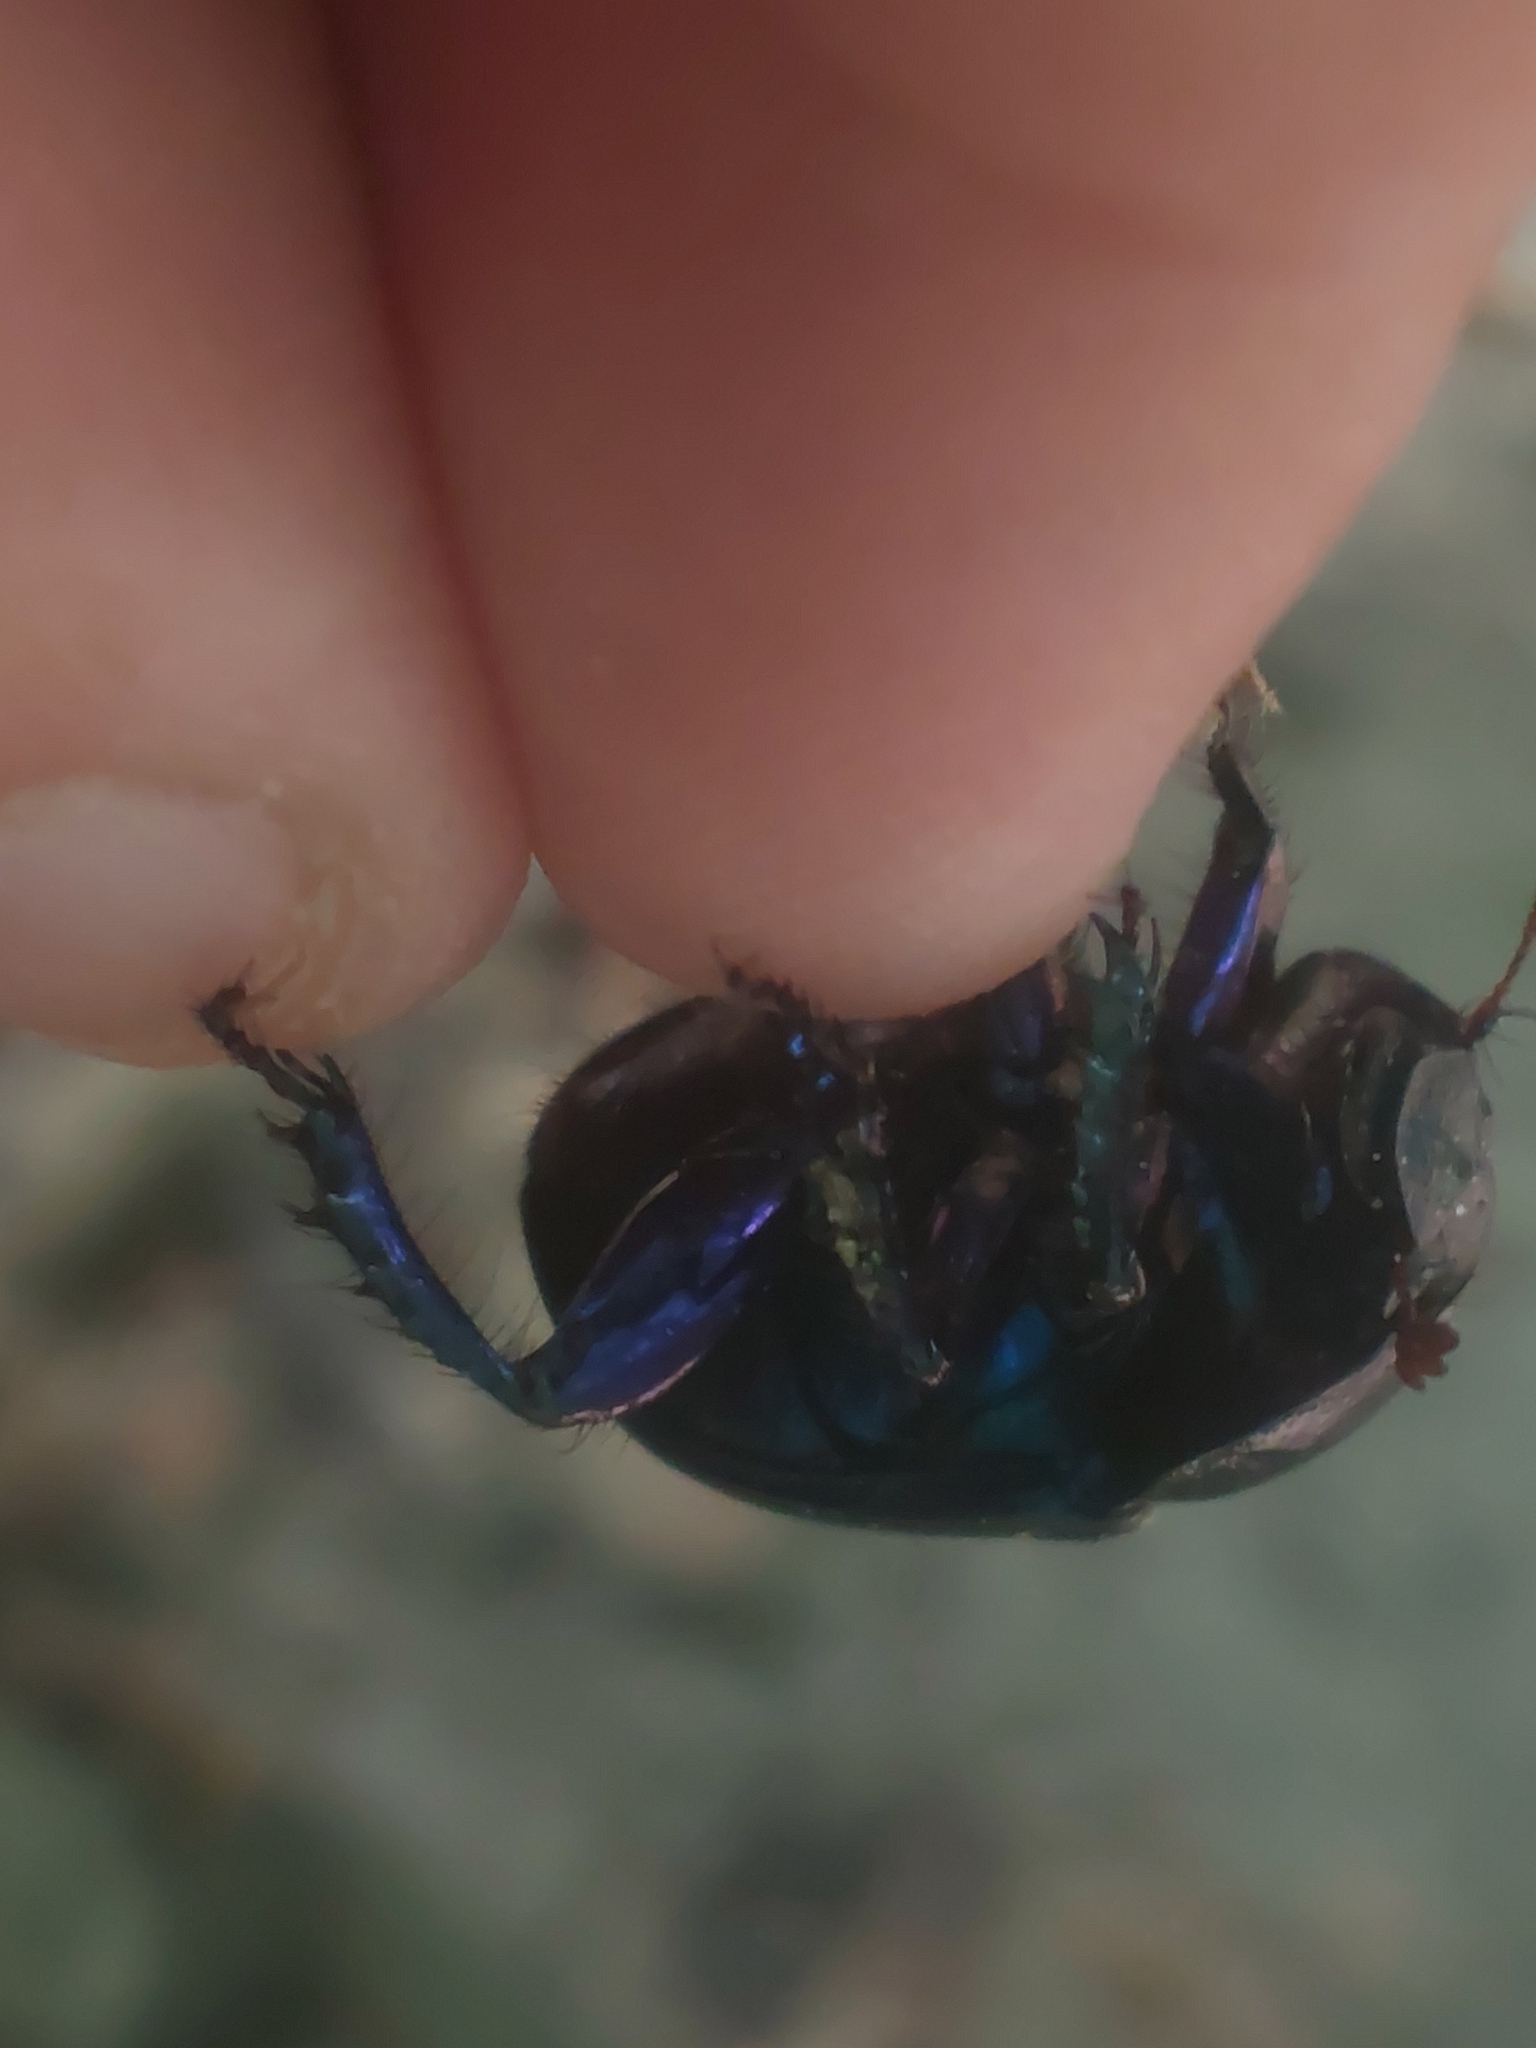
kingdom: Animalia
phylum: Arthropoda
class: Insecta
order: Coleoptera
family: Geotrupidae
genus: Anoplotrupes
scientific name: Anoplotrupes stercorosus
